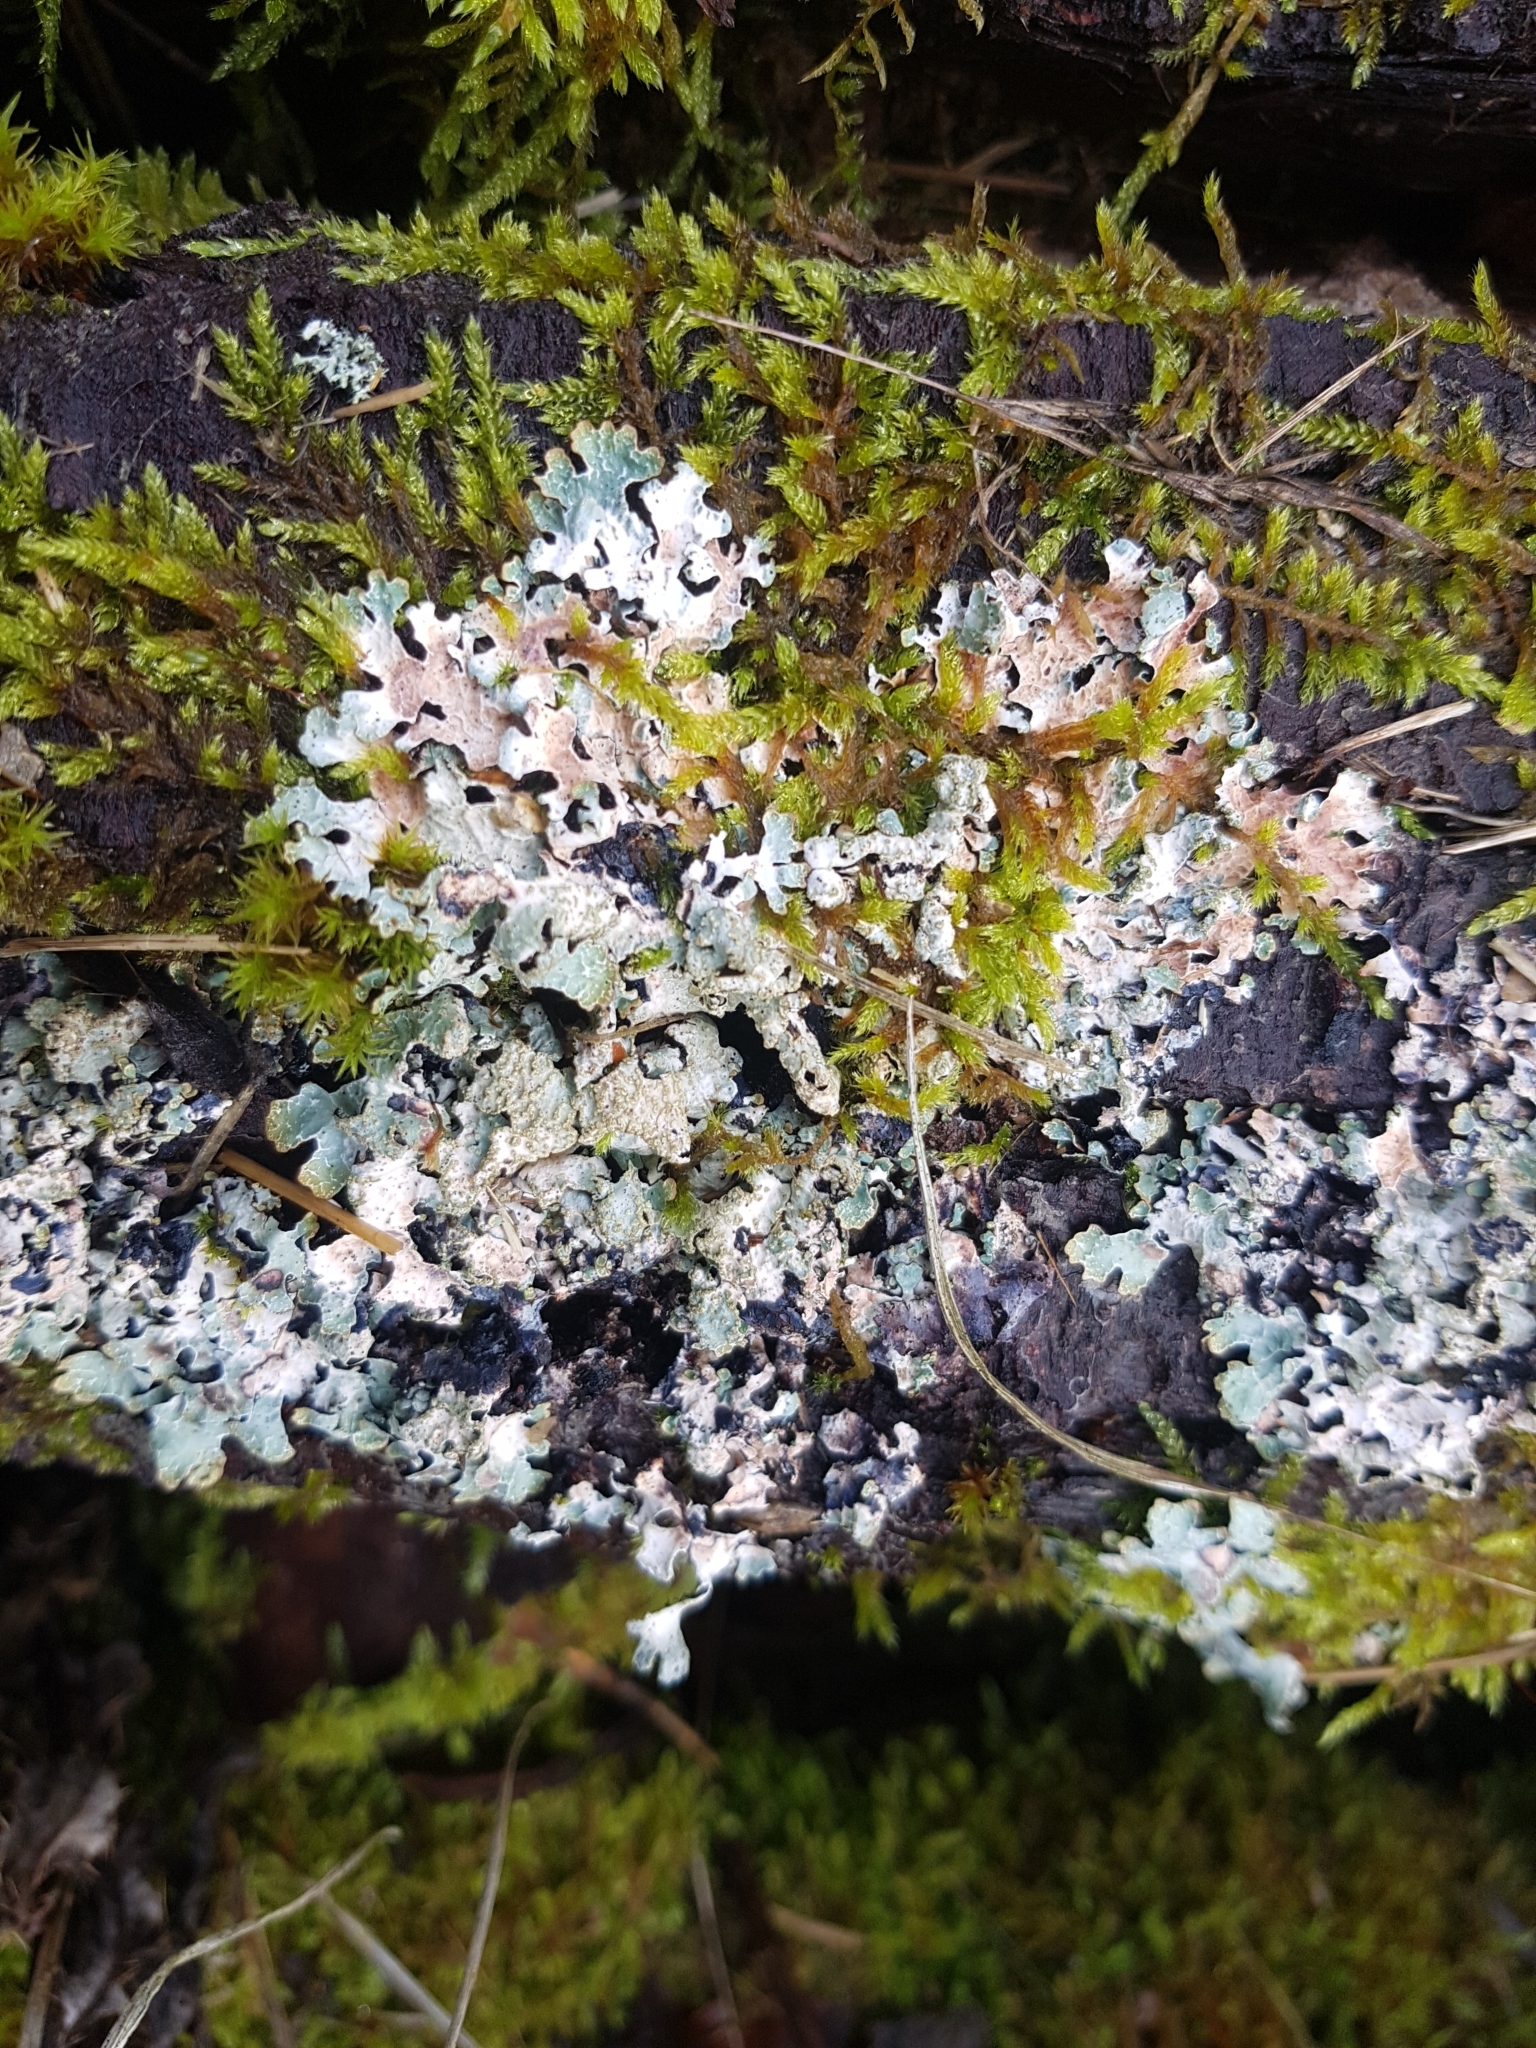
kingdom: Fungi
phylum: Ascomycota
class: Lecanoromycetes
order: Lecanorales
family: Parmeliaceae
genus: Parmelia
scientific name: Parmelia sulcata
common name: Netted shield lichen
